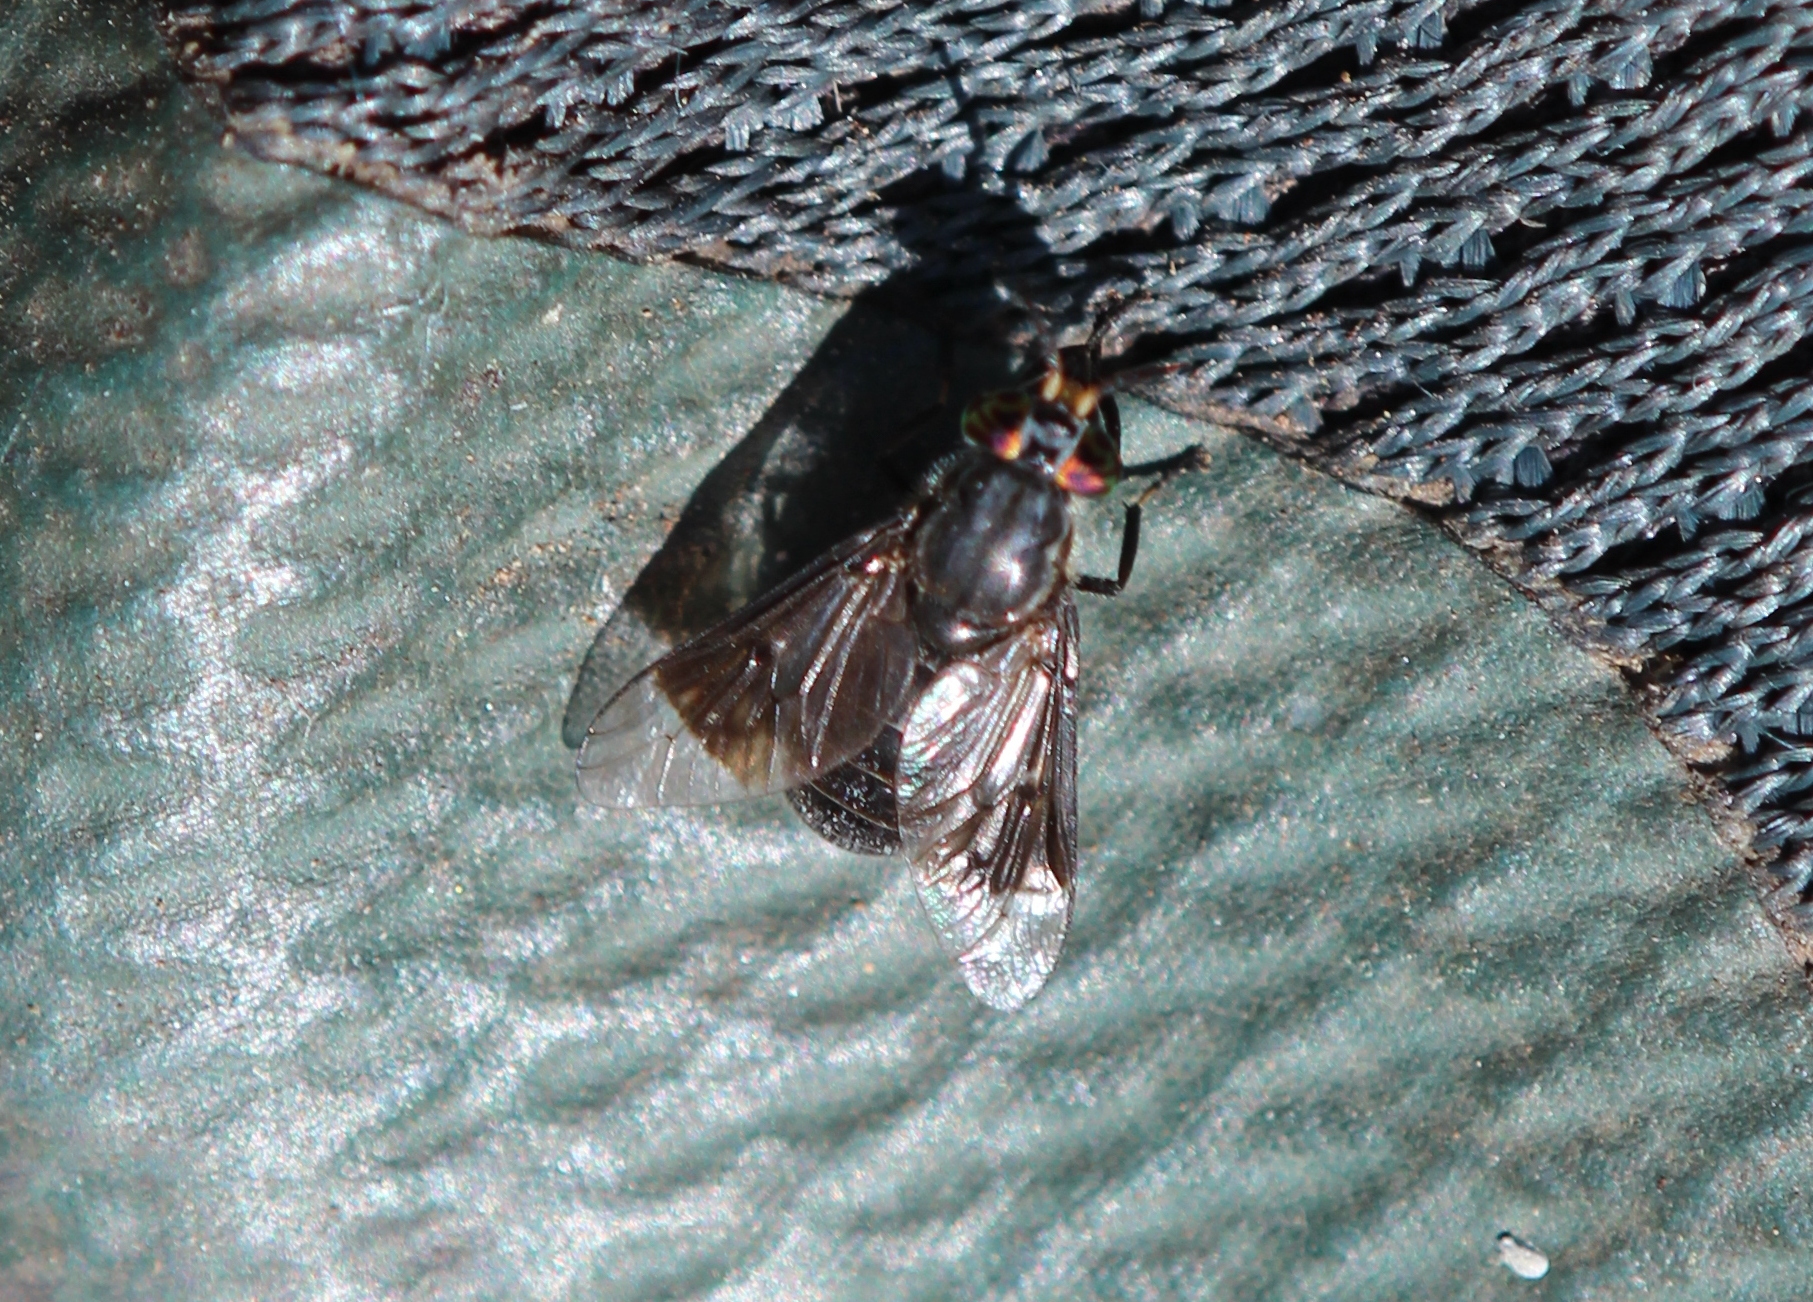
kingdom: Animalia
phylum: Arthropoda
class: Insecta
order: Diptera
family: Tabanidae
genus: Chrysops
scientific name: Chrysops niger
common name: Black deer fly
